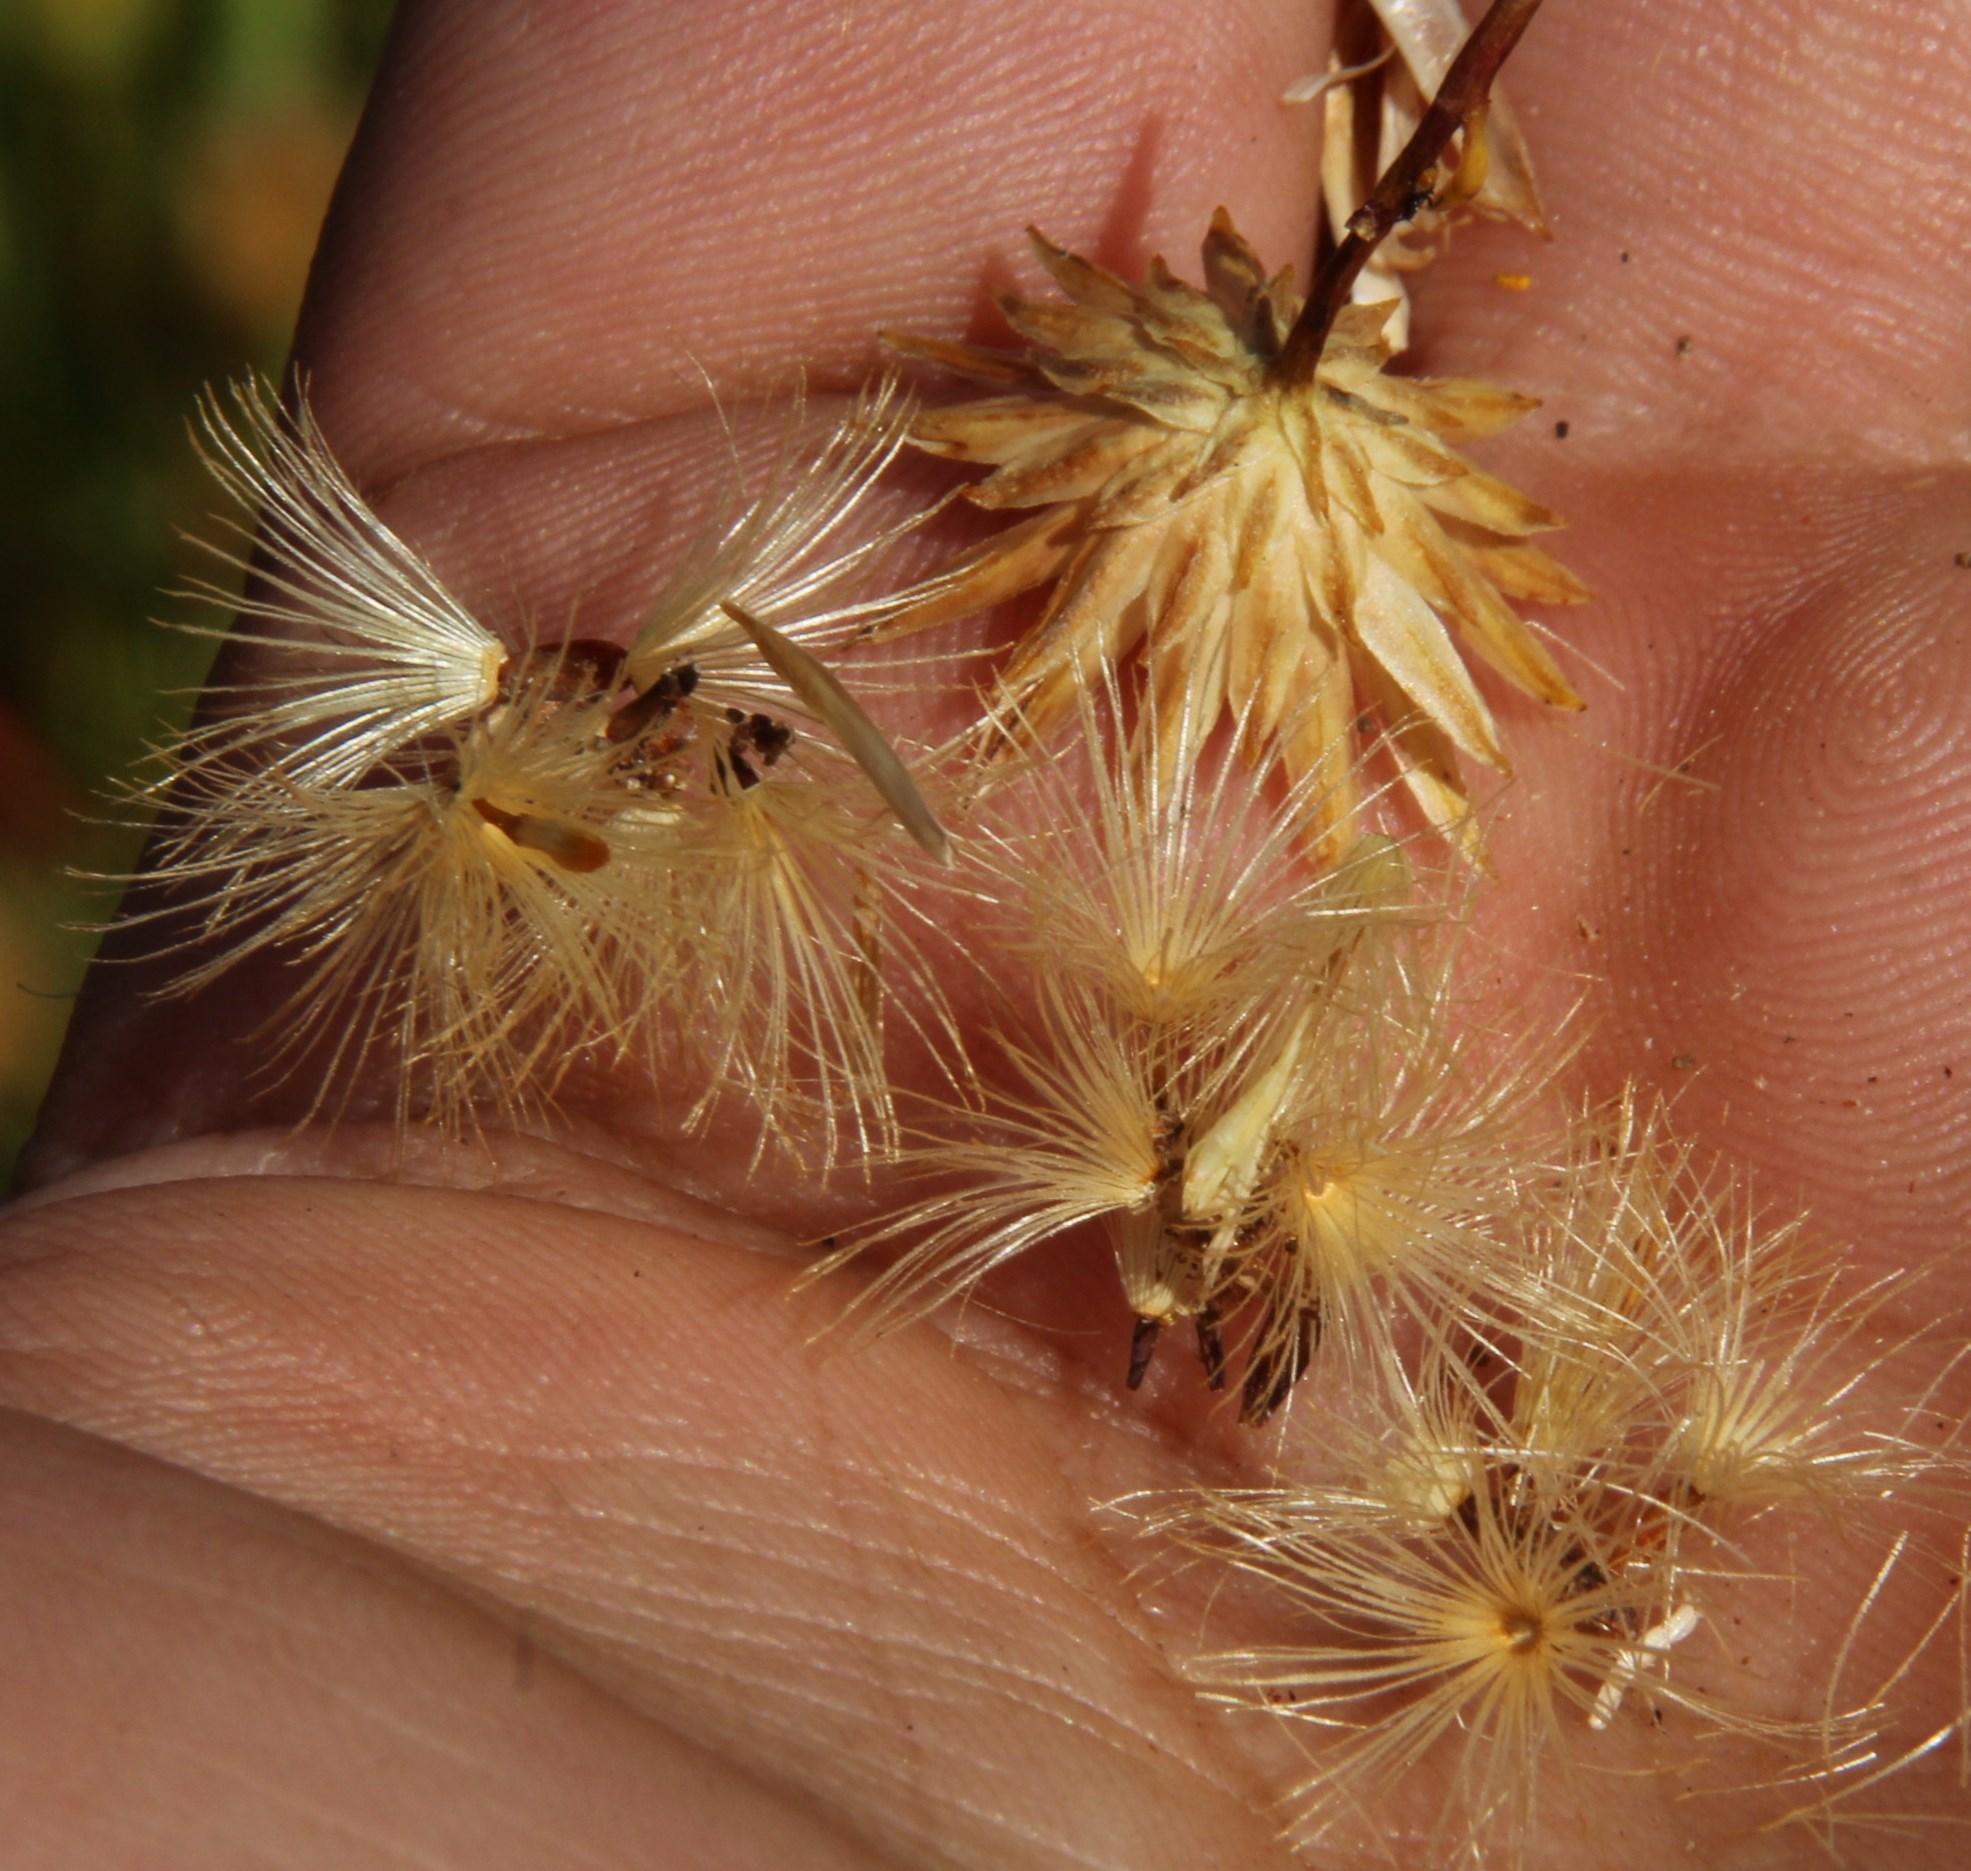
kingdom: Plantae
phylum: Tracheophyta
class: Magnoliopsida
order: Asterales
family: Asteraceae
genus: Pteronia
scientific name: Pteronia cederbergensis
